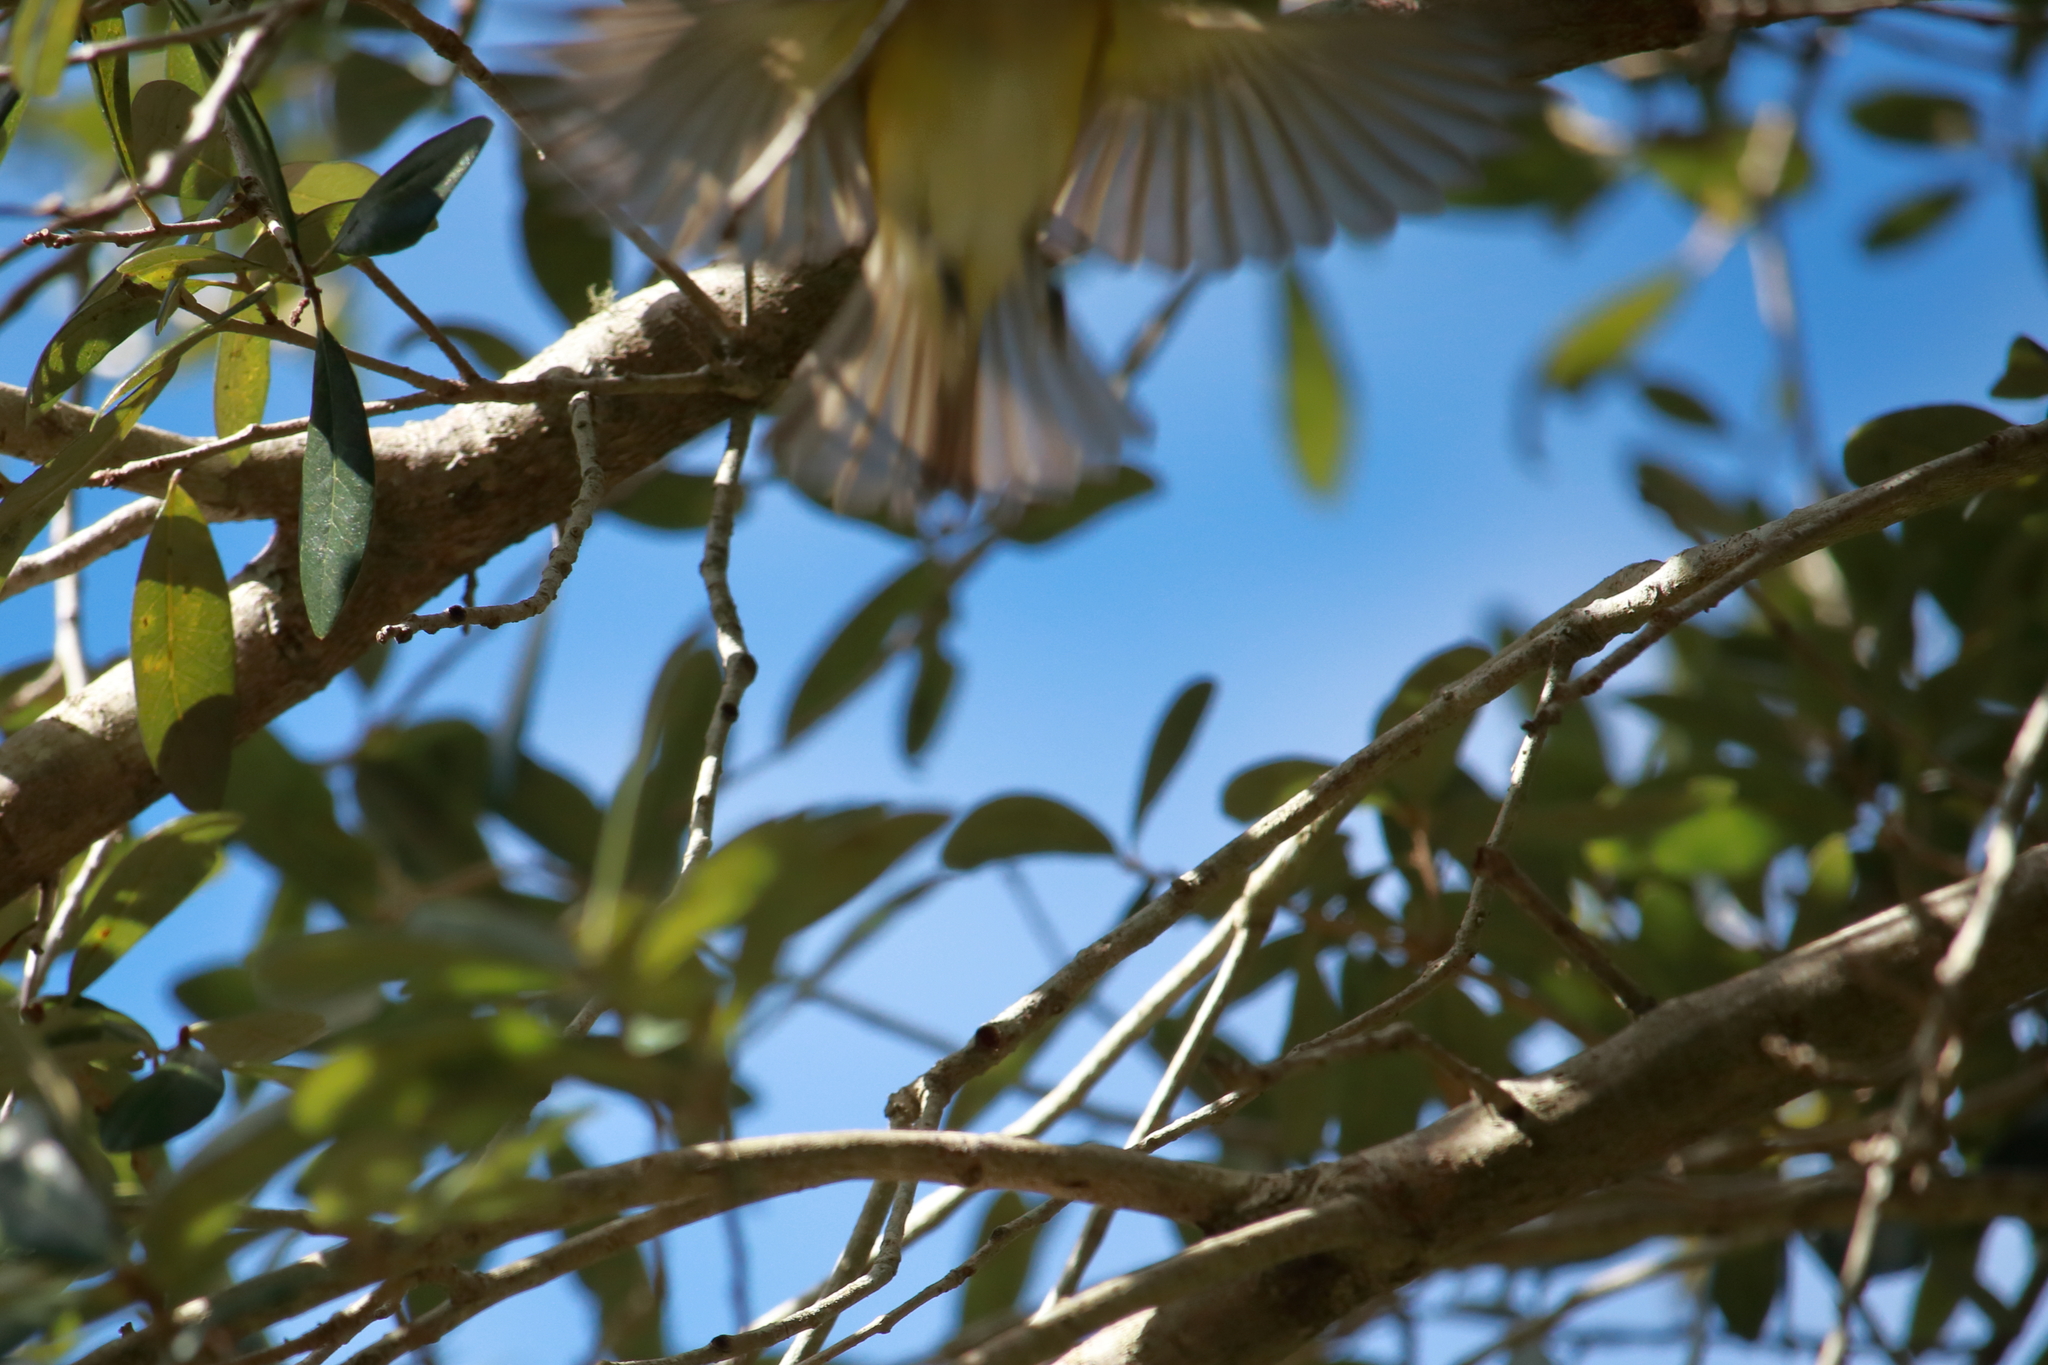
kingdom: Animalia
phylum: Chordata
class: Aves
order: Passeriformes
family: Vireonidae
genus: Vireo
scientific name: Vireo griseus
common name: White-eyed vireo
